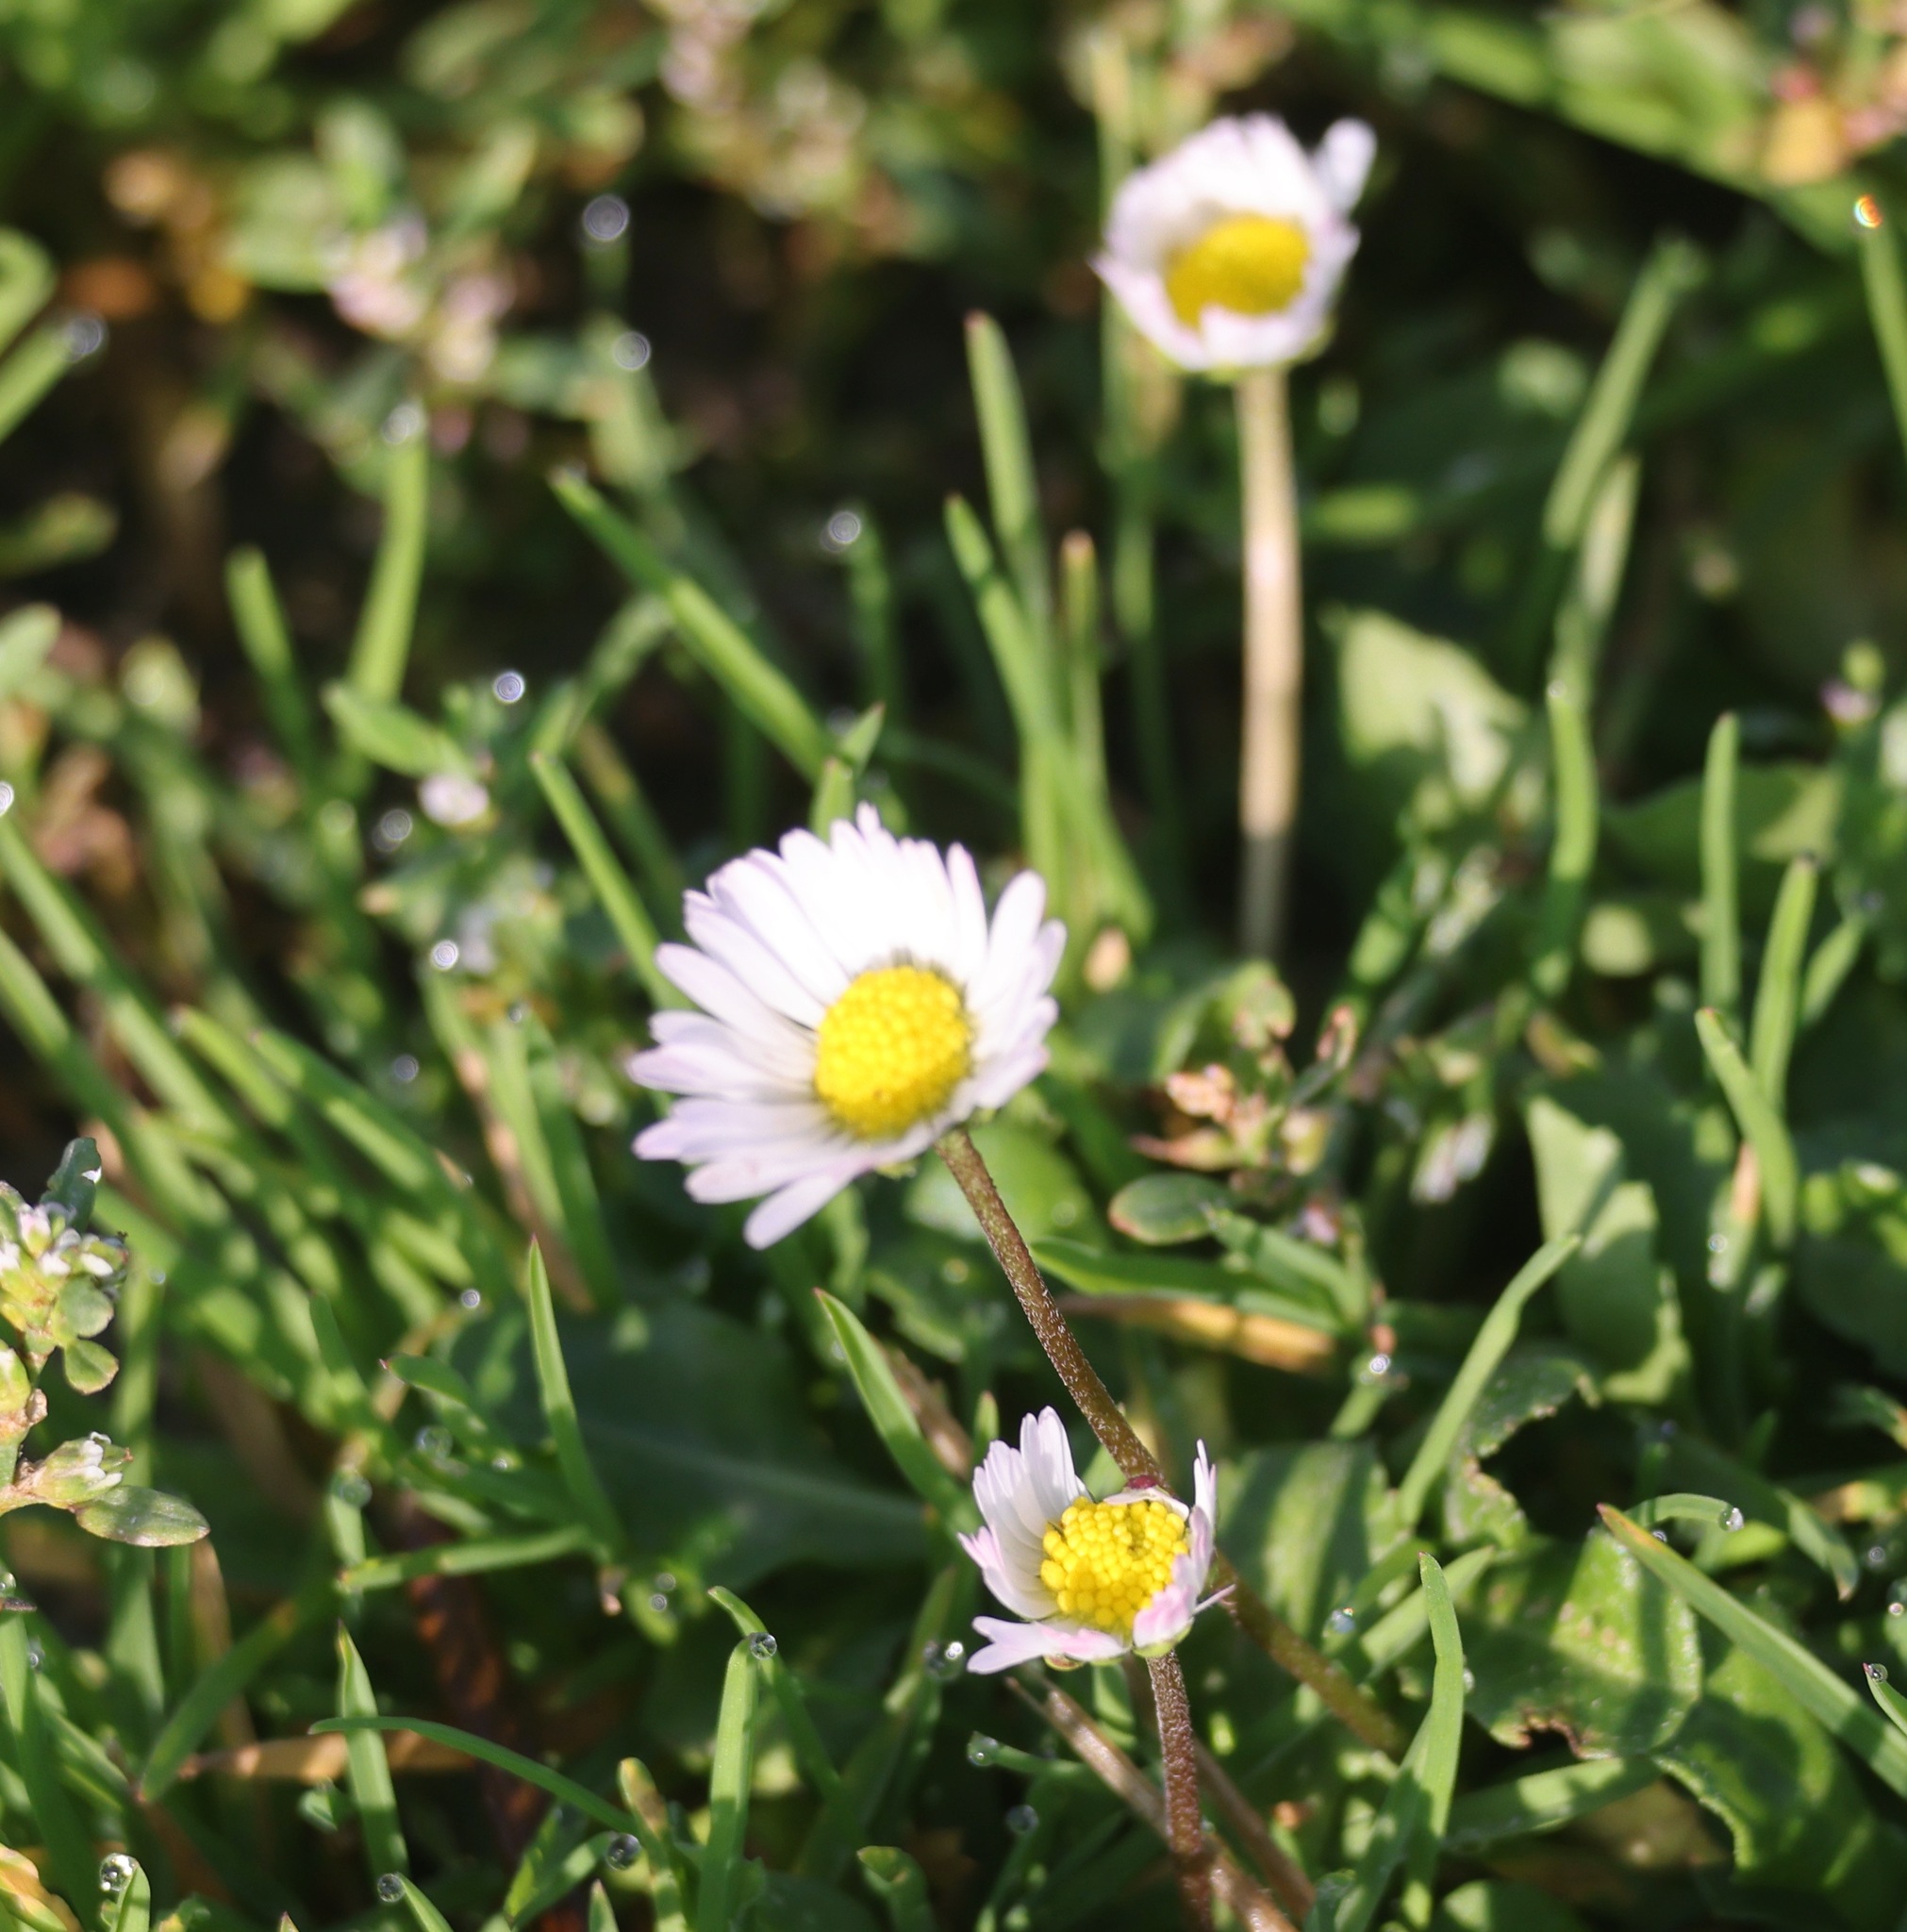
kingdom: Plantae
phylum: Tracheophyta
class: Magnoliopsida
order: Asterales
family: Asteraceae
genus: Bellis
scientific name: Bellis perennis
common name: Lawndaisy
